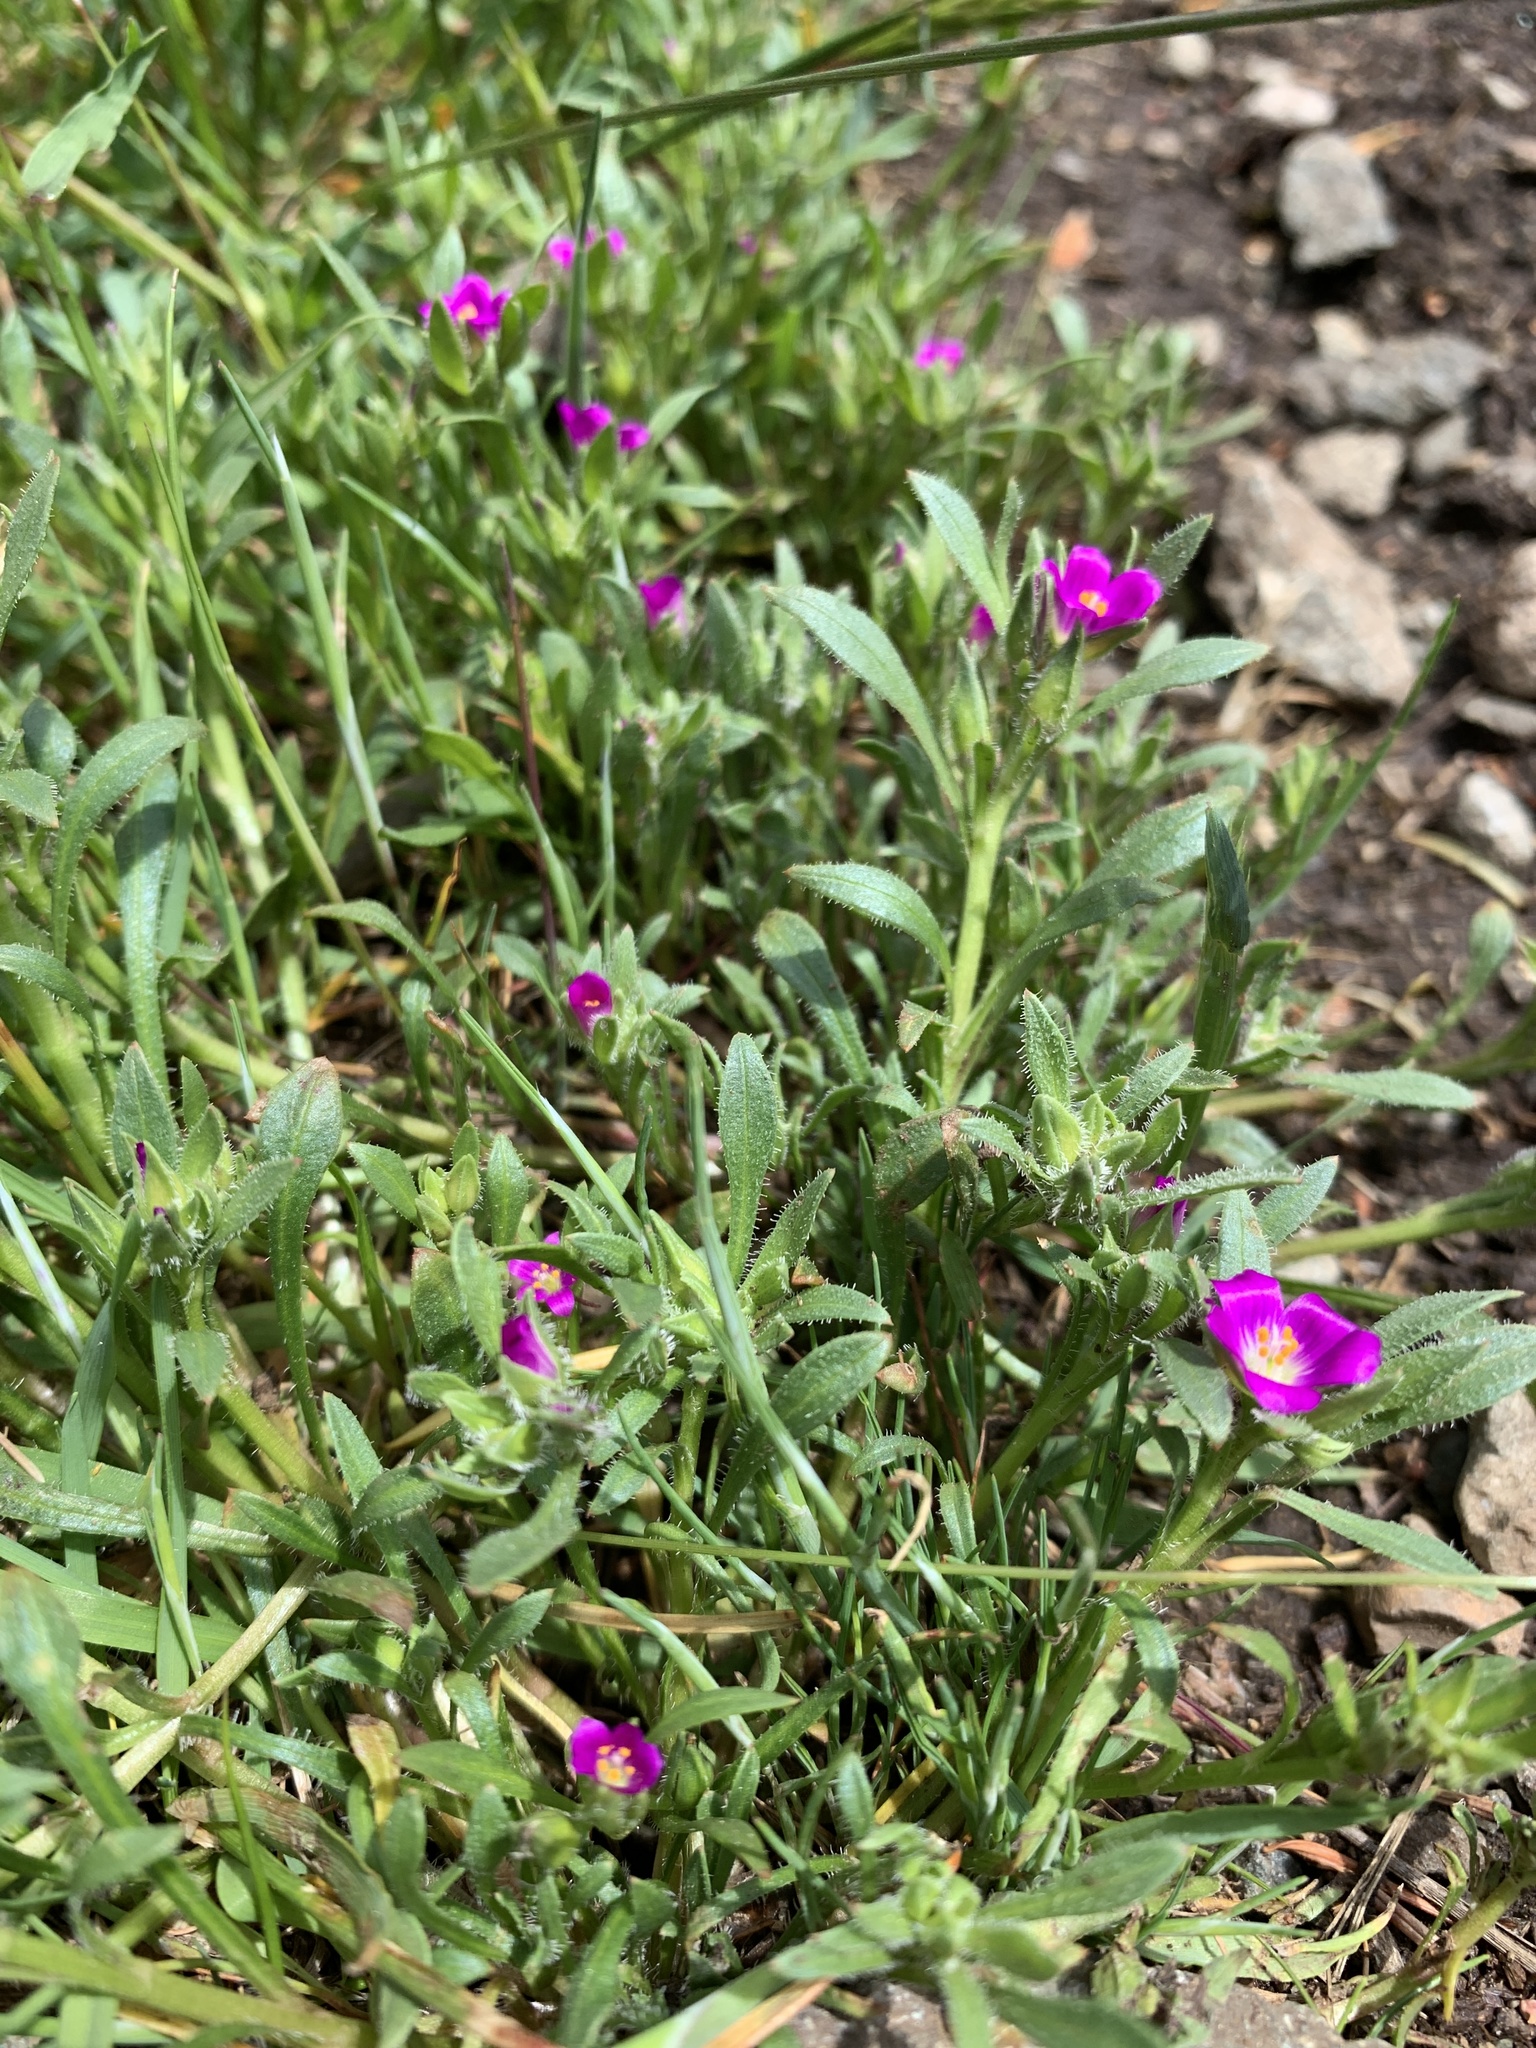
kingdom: Plantae
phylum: Tracheophyta
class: Magnoliopsida
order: Caryophyllales
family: Montiaceae
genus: Calandrinia
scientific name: Calandrinia menziesii
